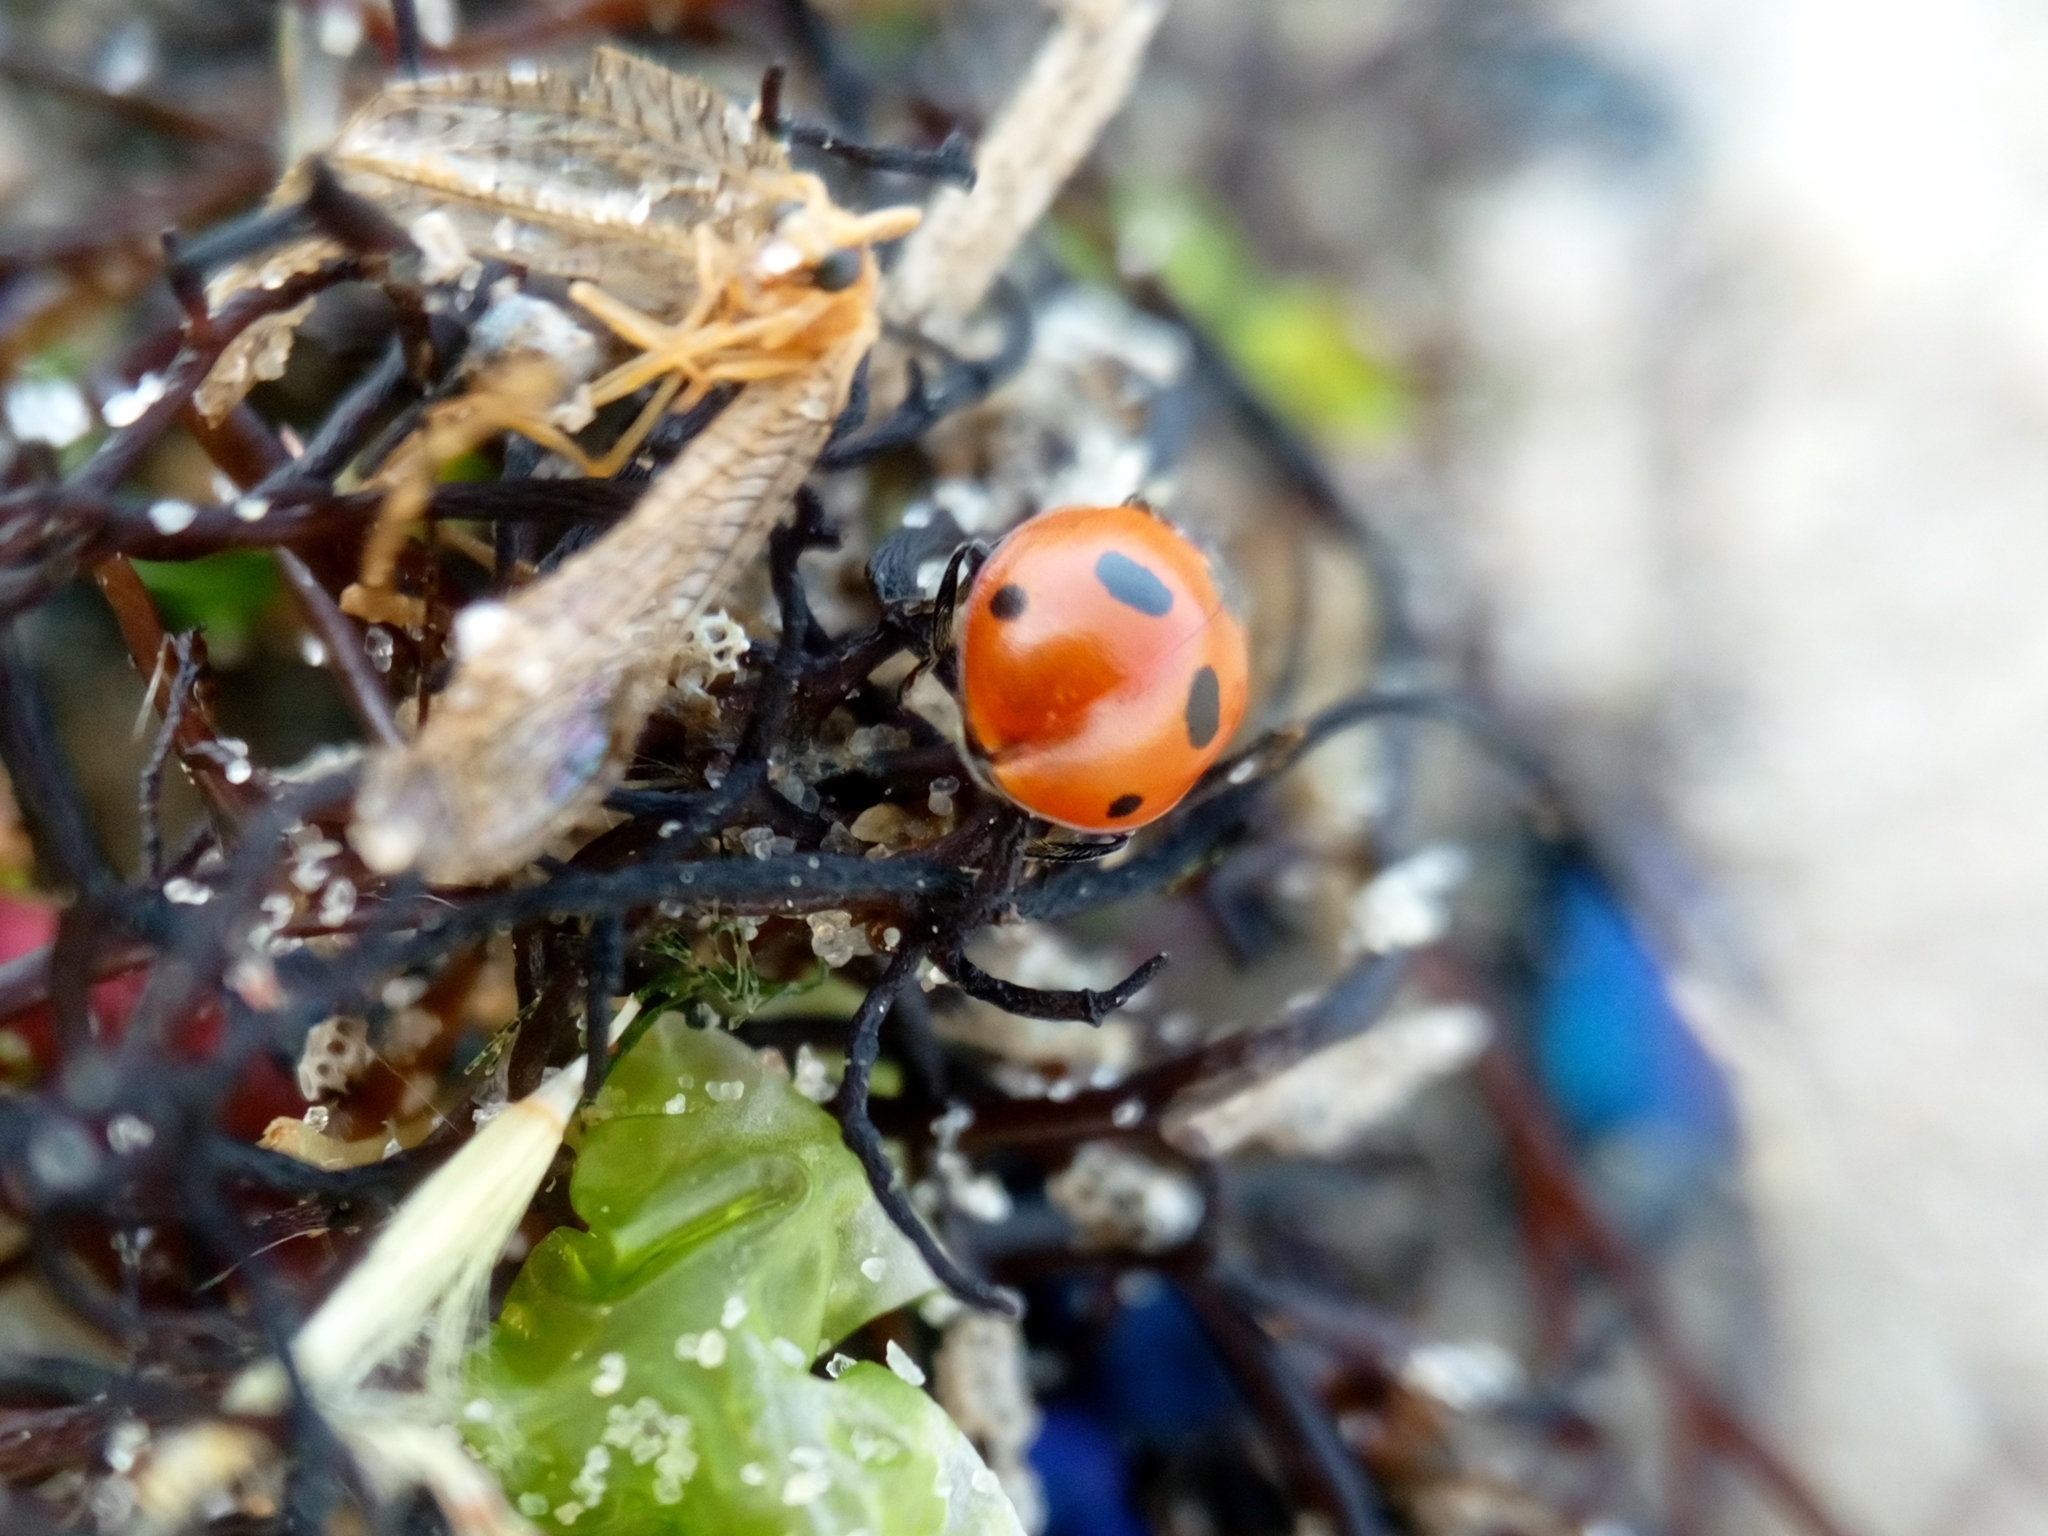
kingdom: Animalia
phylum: Arthropoda
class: Insecta
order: Coleoptera
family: Coccinellidae
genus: Coccinella
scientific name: Coccinella quinquepunctata
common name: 5-spot ladybird
